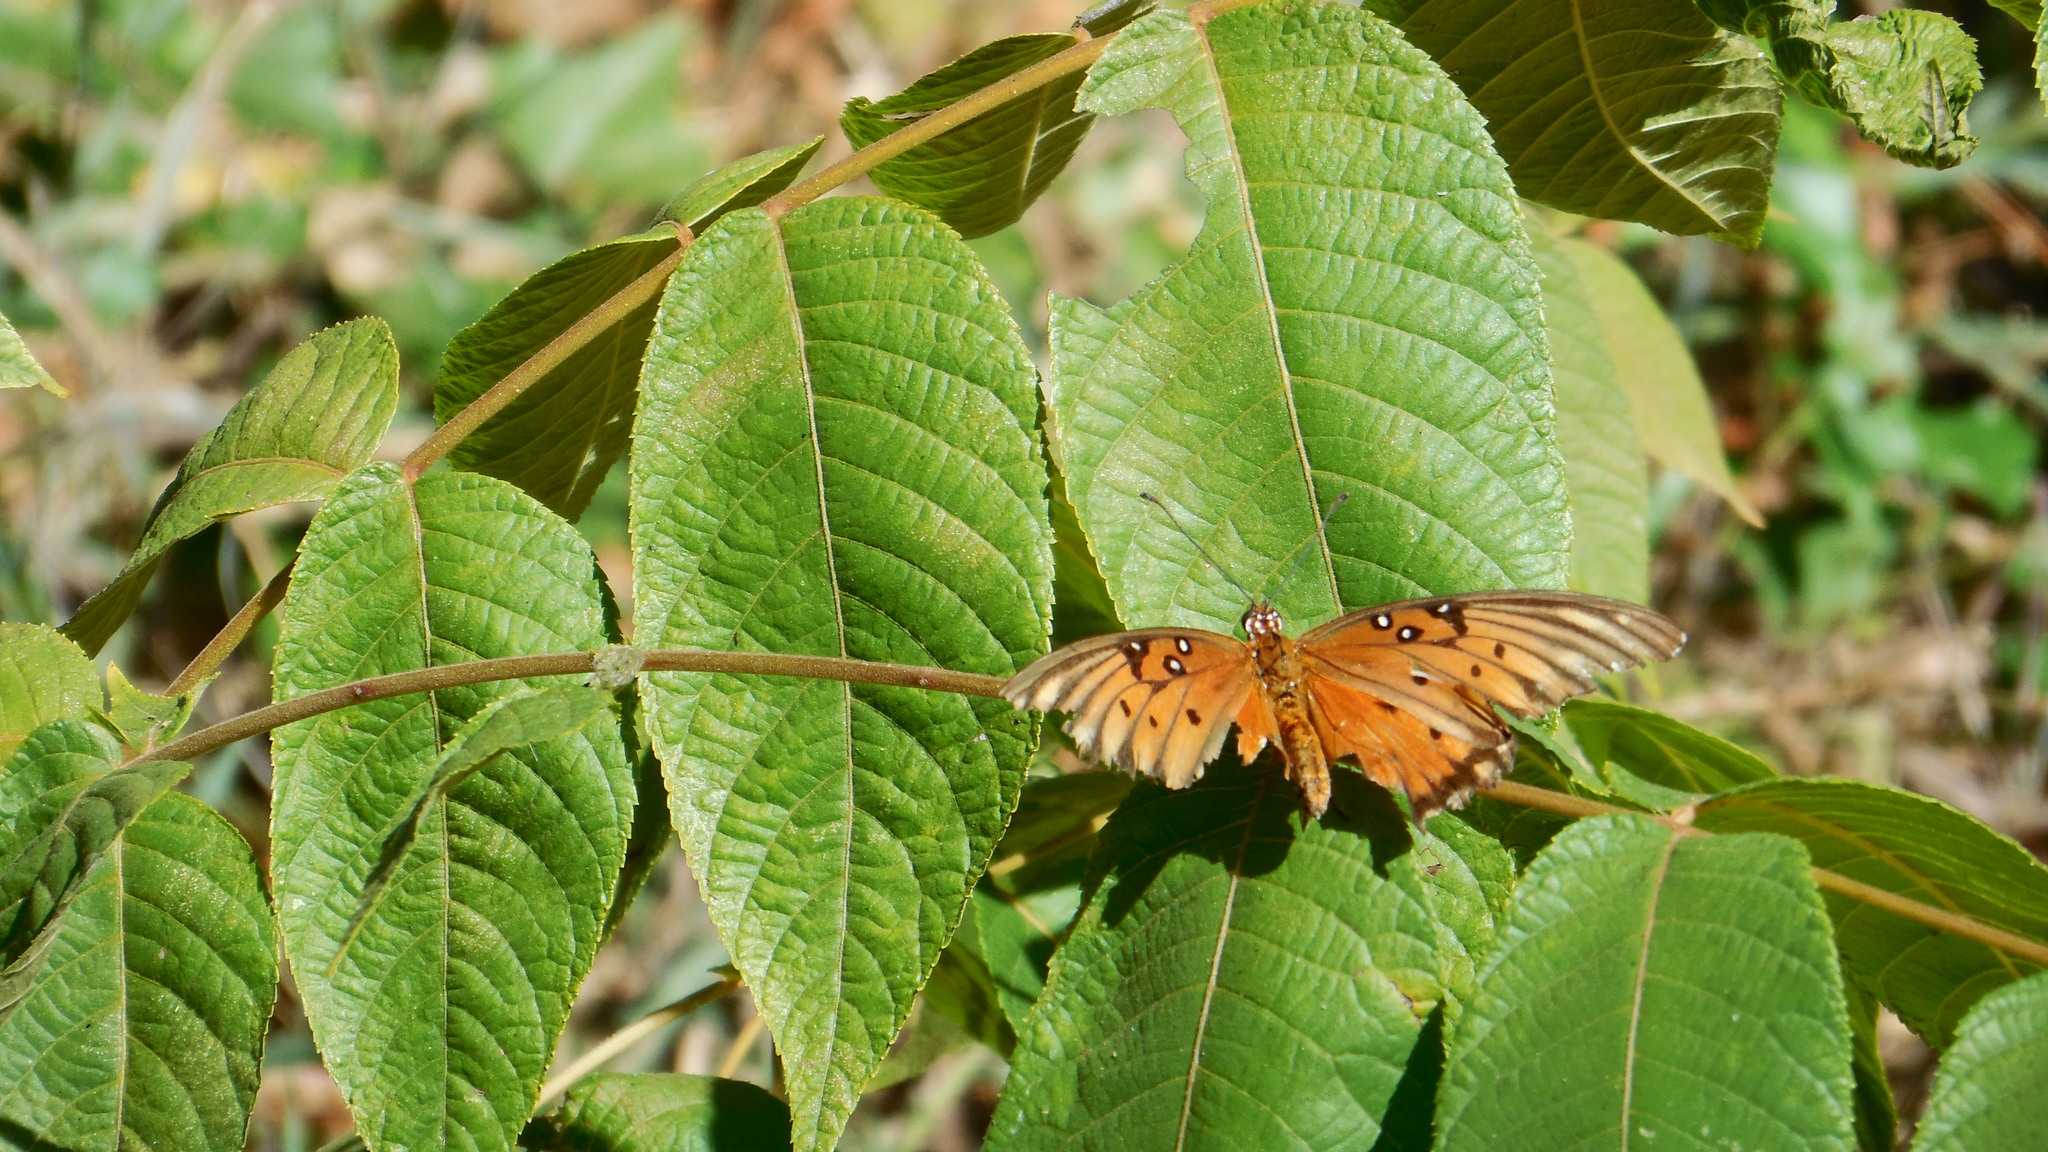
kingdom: Animalia
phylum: Arthropoda
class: Insecta
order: Lepidoptera
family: Nymphalidae
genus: Dione
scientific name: Dione vanillae
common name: Gulf fritillary
